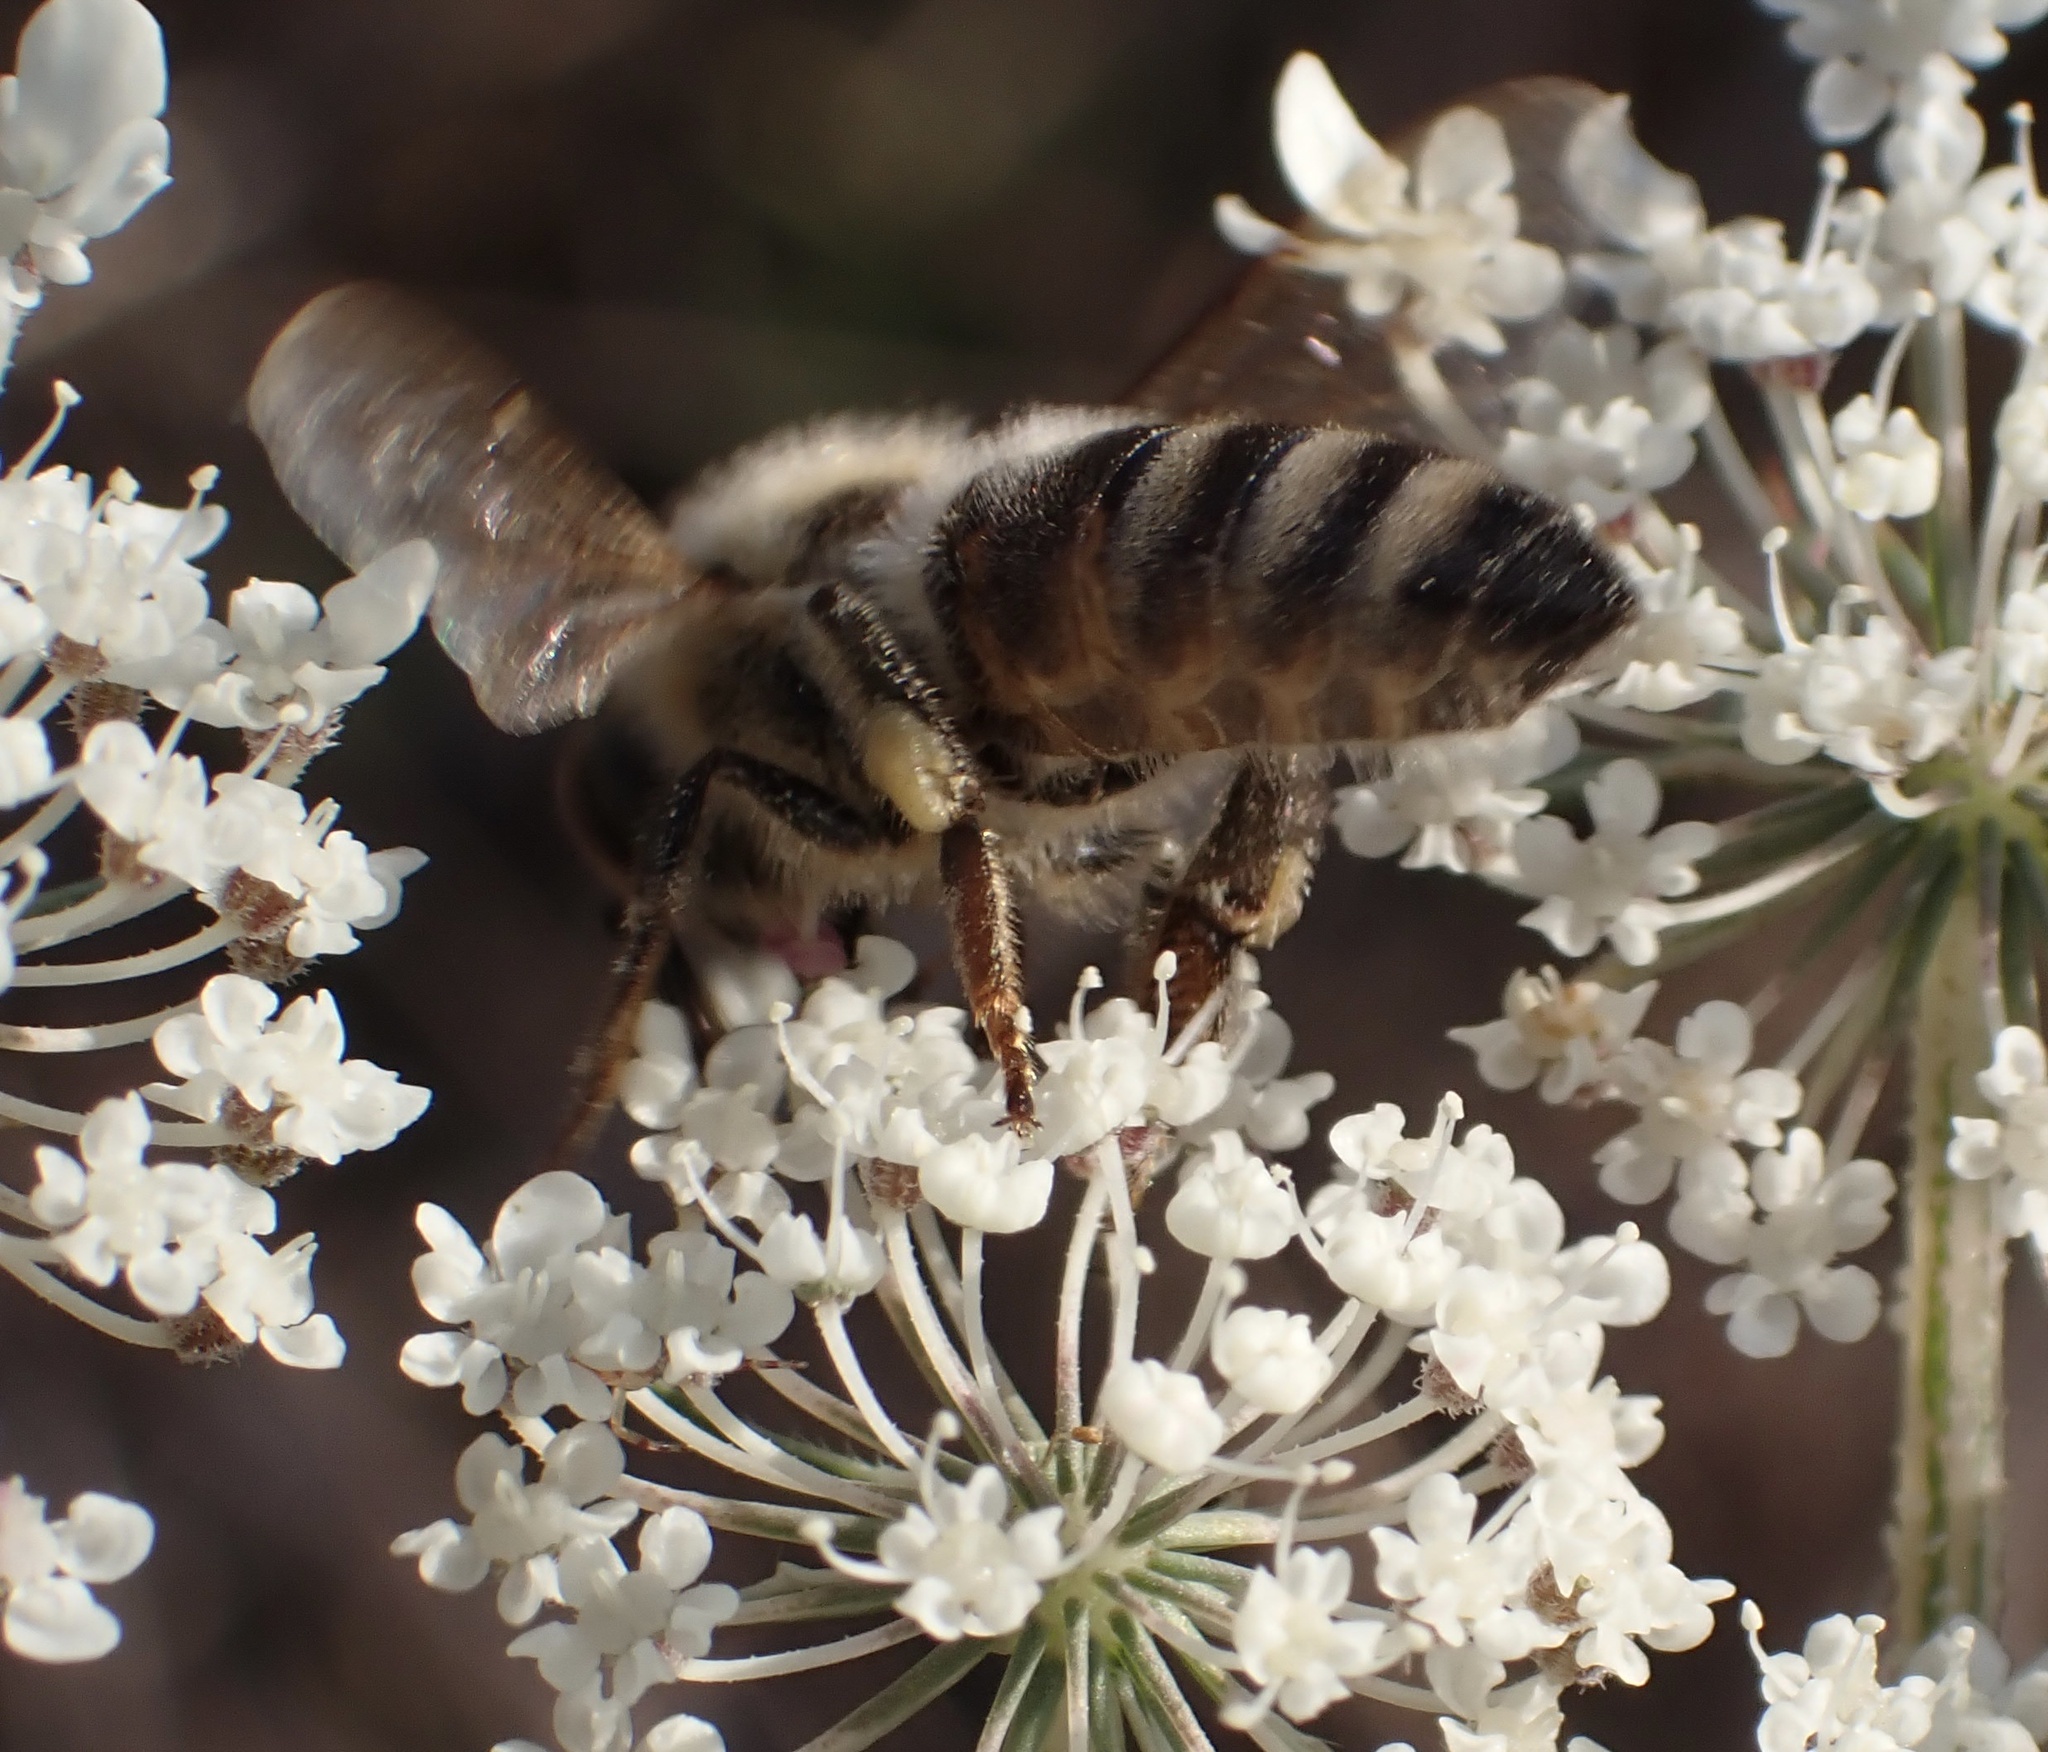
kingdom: Animalia
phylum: Arthropoda
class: Insecta
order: Hymenoptera
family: Apidae
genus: Apis
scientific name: Apis mellifera
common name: Honey bee
